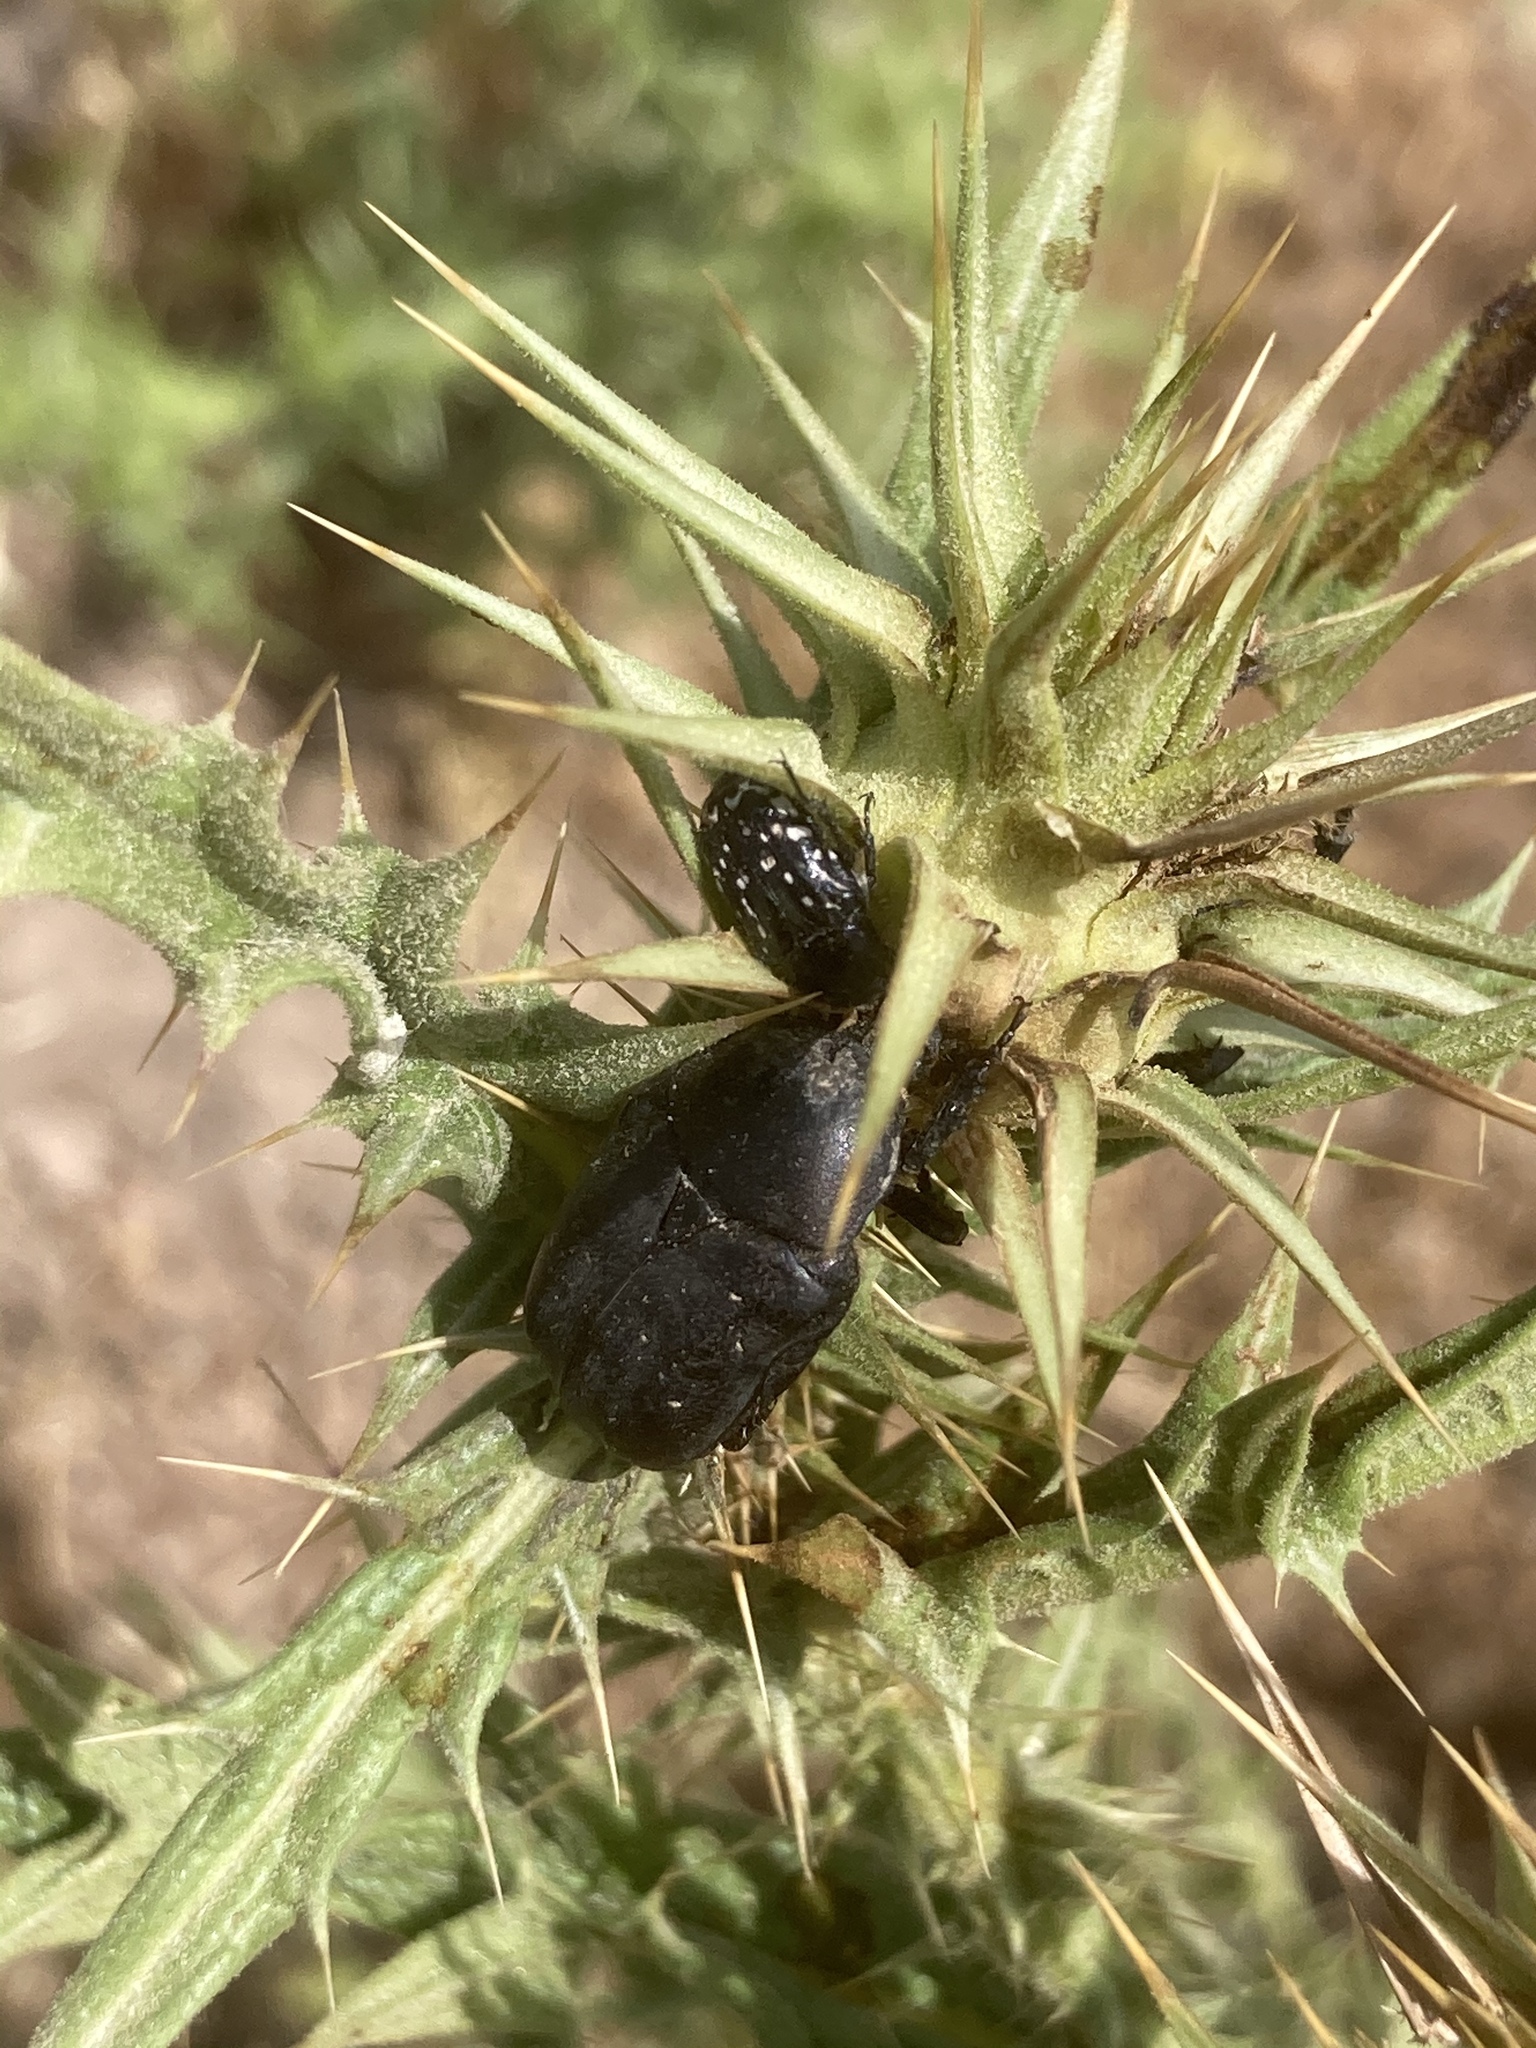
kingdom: Animalia
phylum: Arthropoda
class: Insecta
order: Coleoptera
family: Scarabaeidae
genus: Protaetia
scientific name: Protaetia vidua
